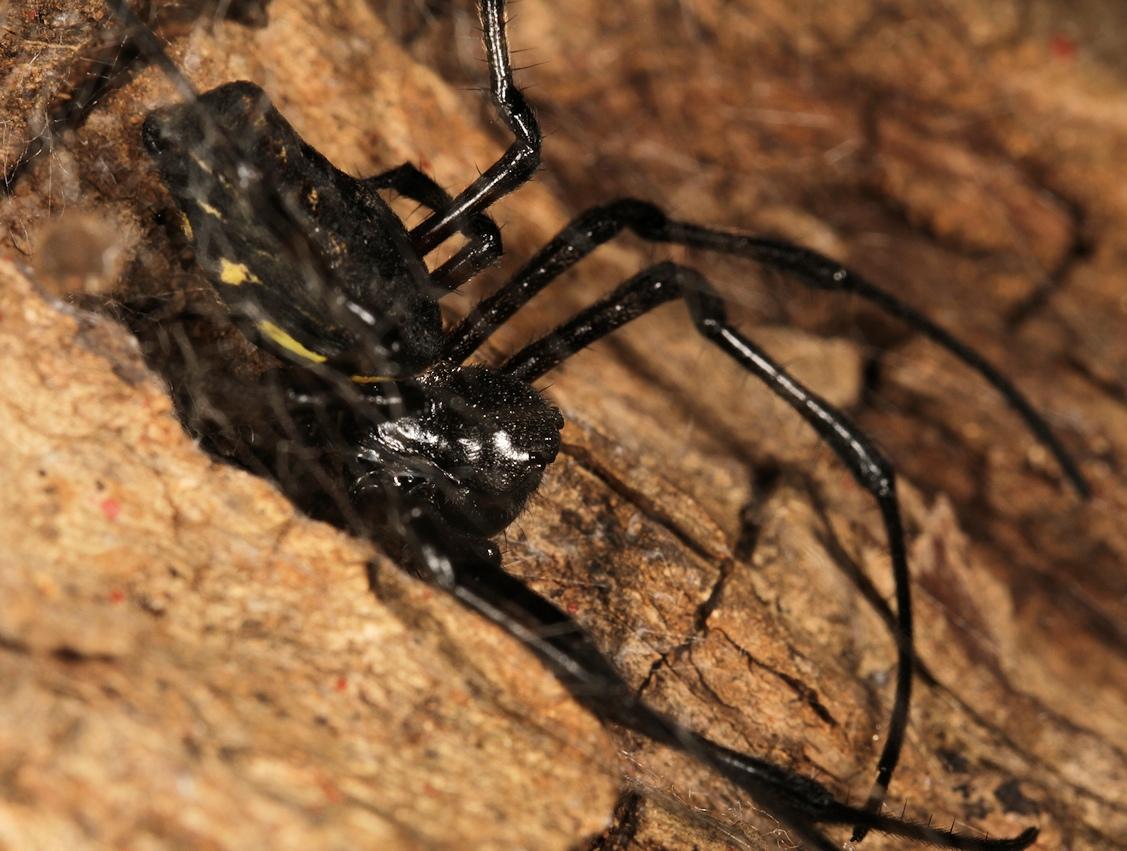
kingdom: Animalia
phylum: Arthropoda
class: Arachnida
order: Araneae
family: Araneidae
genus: Nephilingis
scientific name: Nephilingis cruentata
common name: African hermit spider
